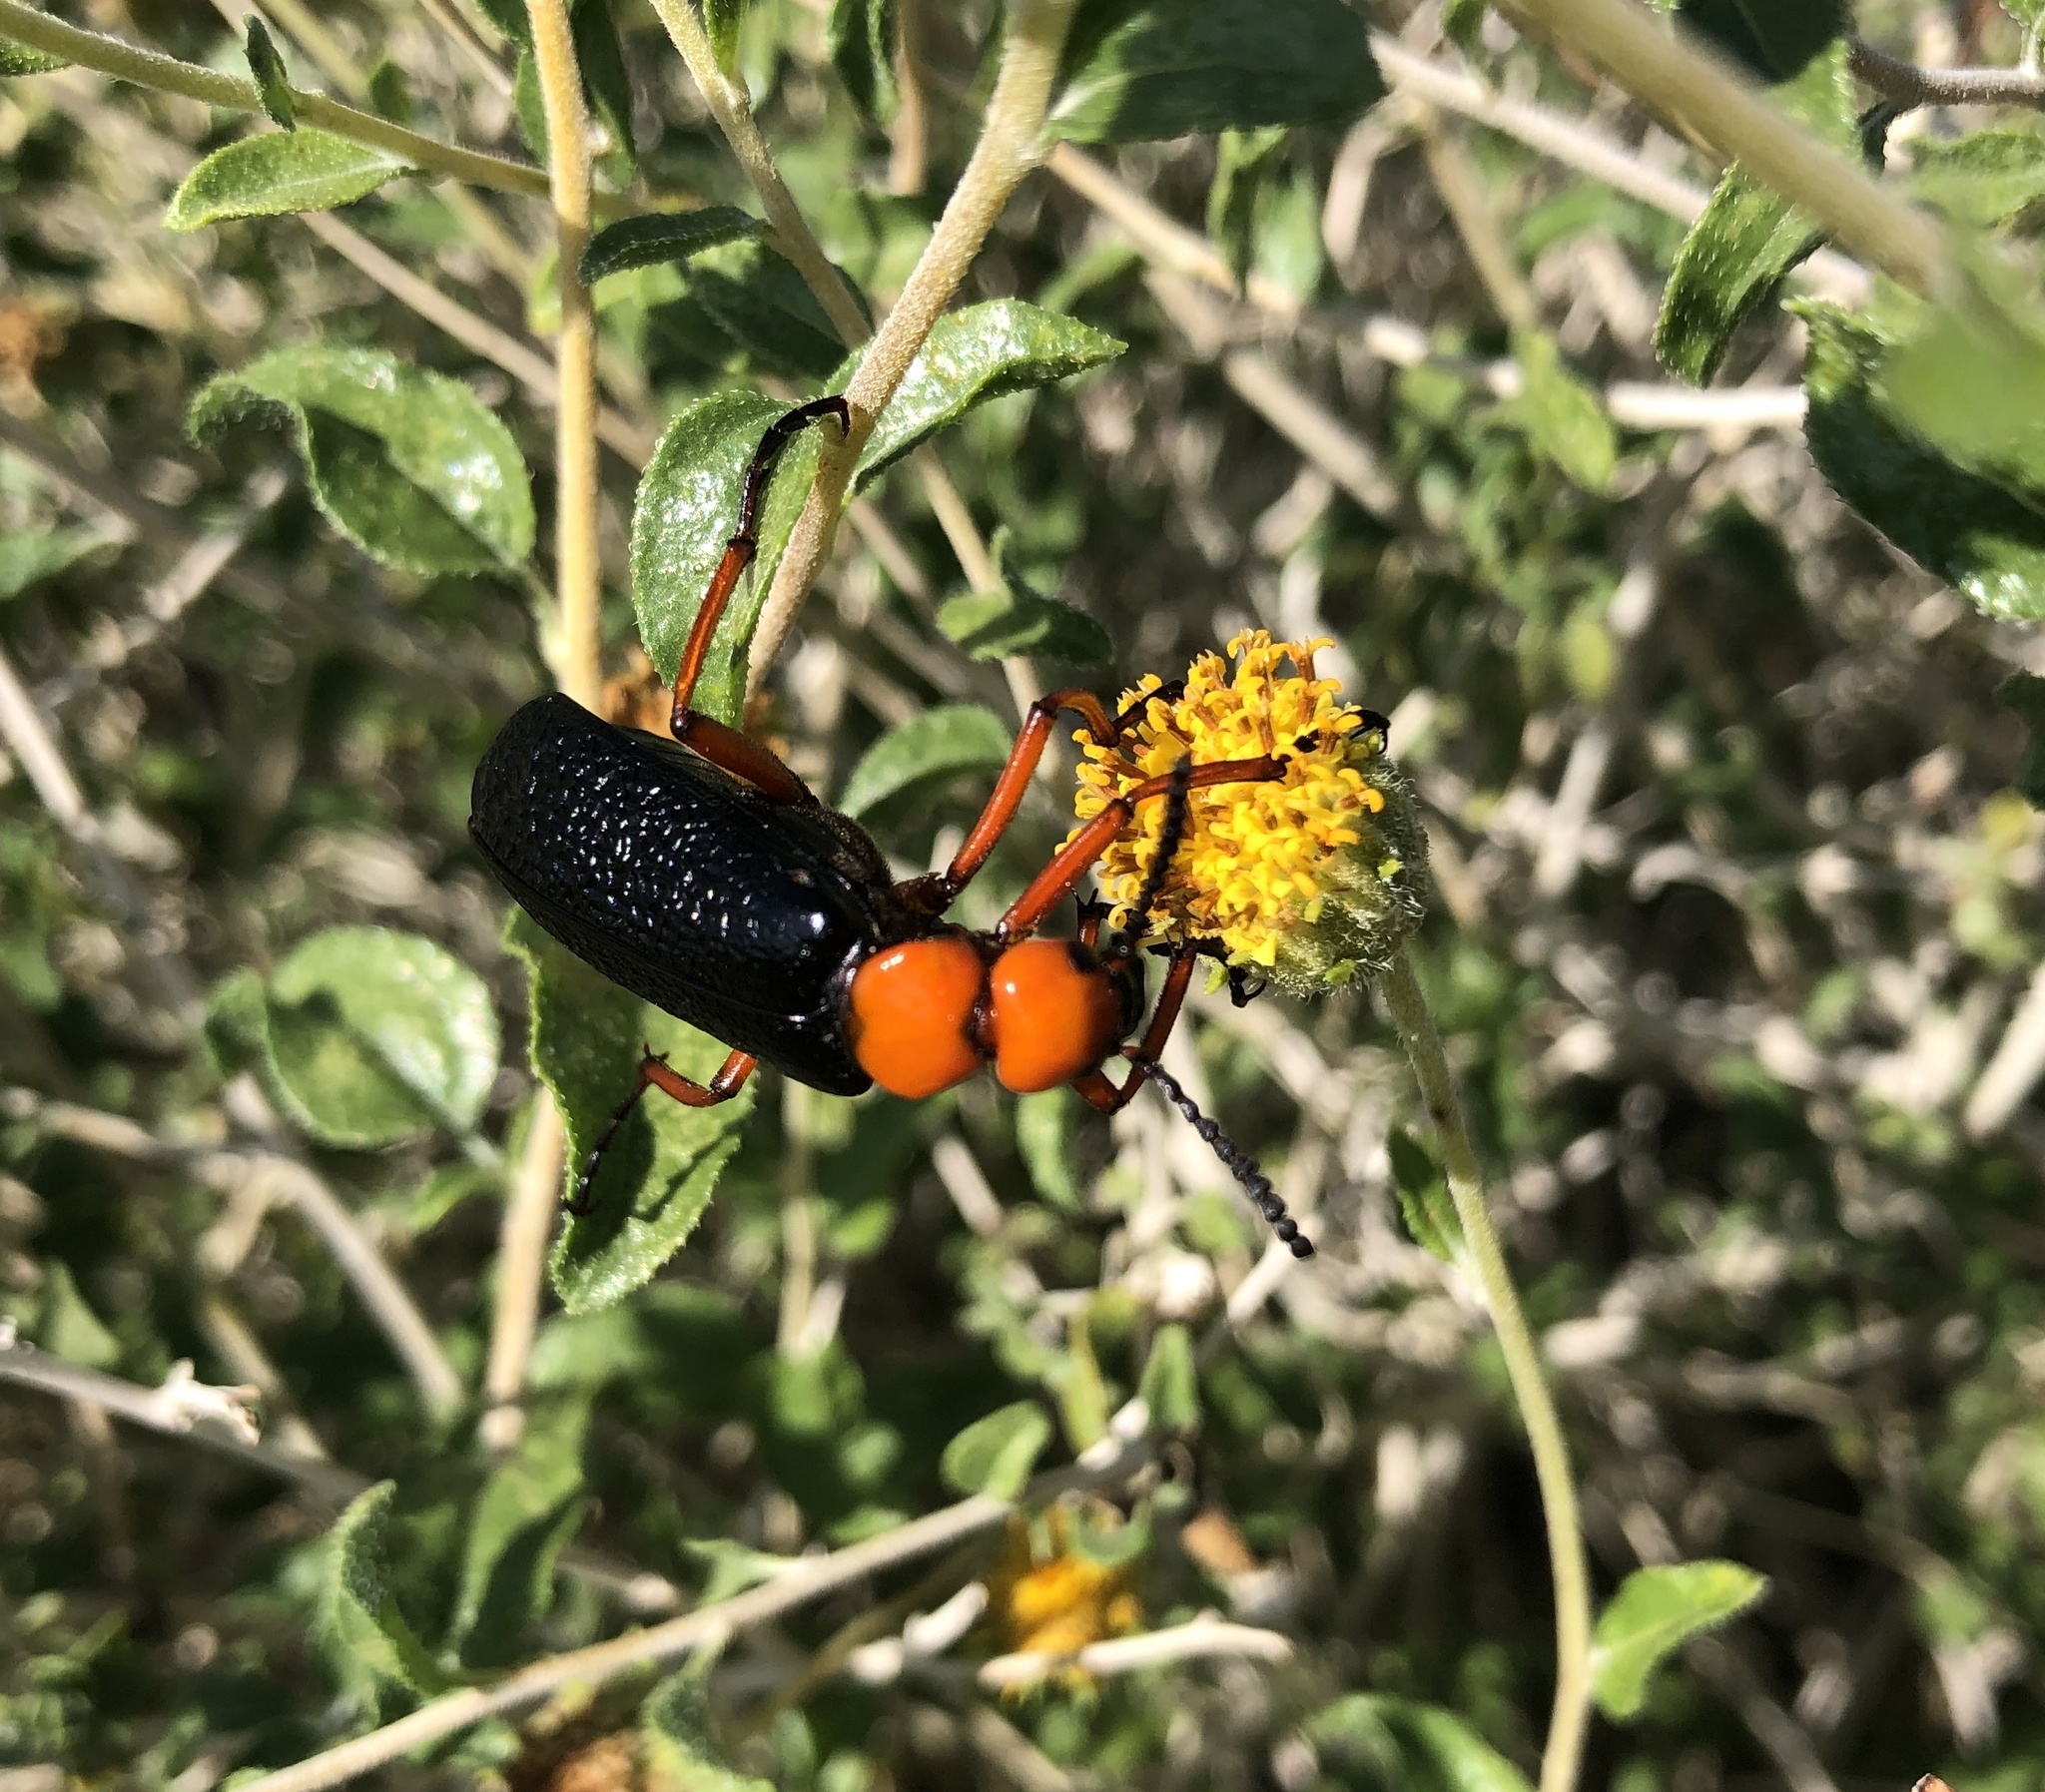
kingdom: Animalia
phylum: Arthropoda
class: Insecta
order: Coleoptera
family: Meloidae
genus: Lytta
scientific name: Lytta magister
